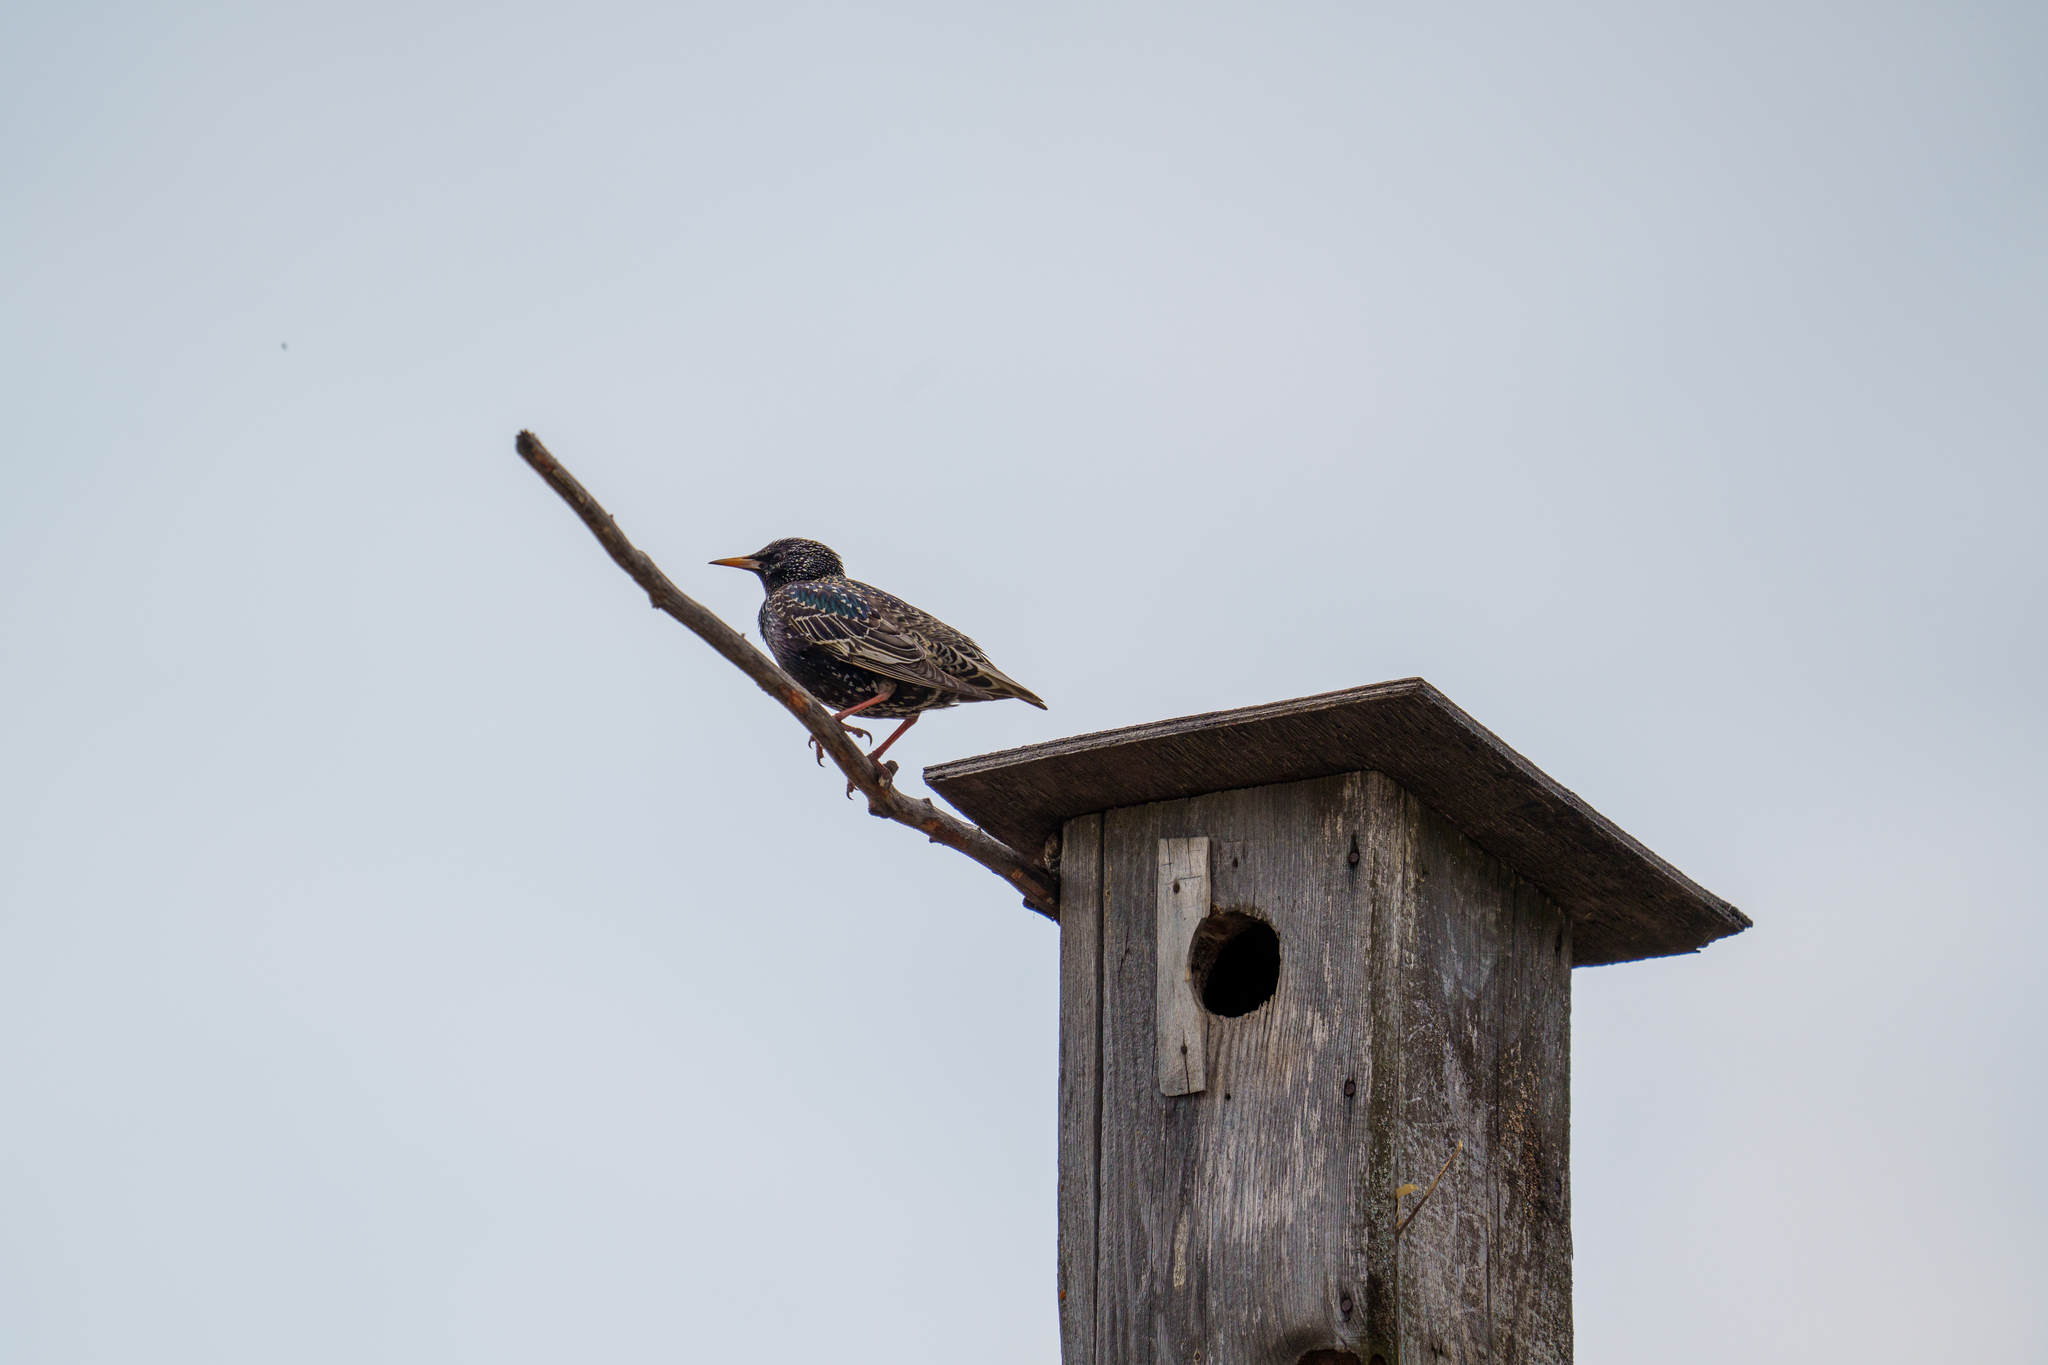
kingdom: Animalia
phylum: Chordata
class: Aves
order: Passeriformes
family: Sturnidae
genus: Sturnus
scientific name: Sturnus vulgaris
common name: Common starling
